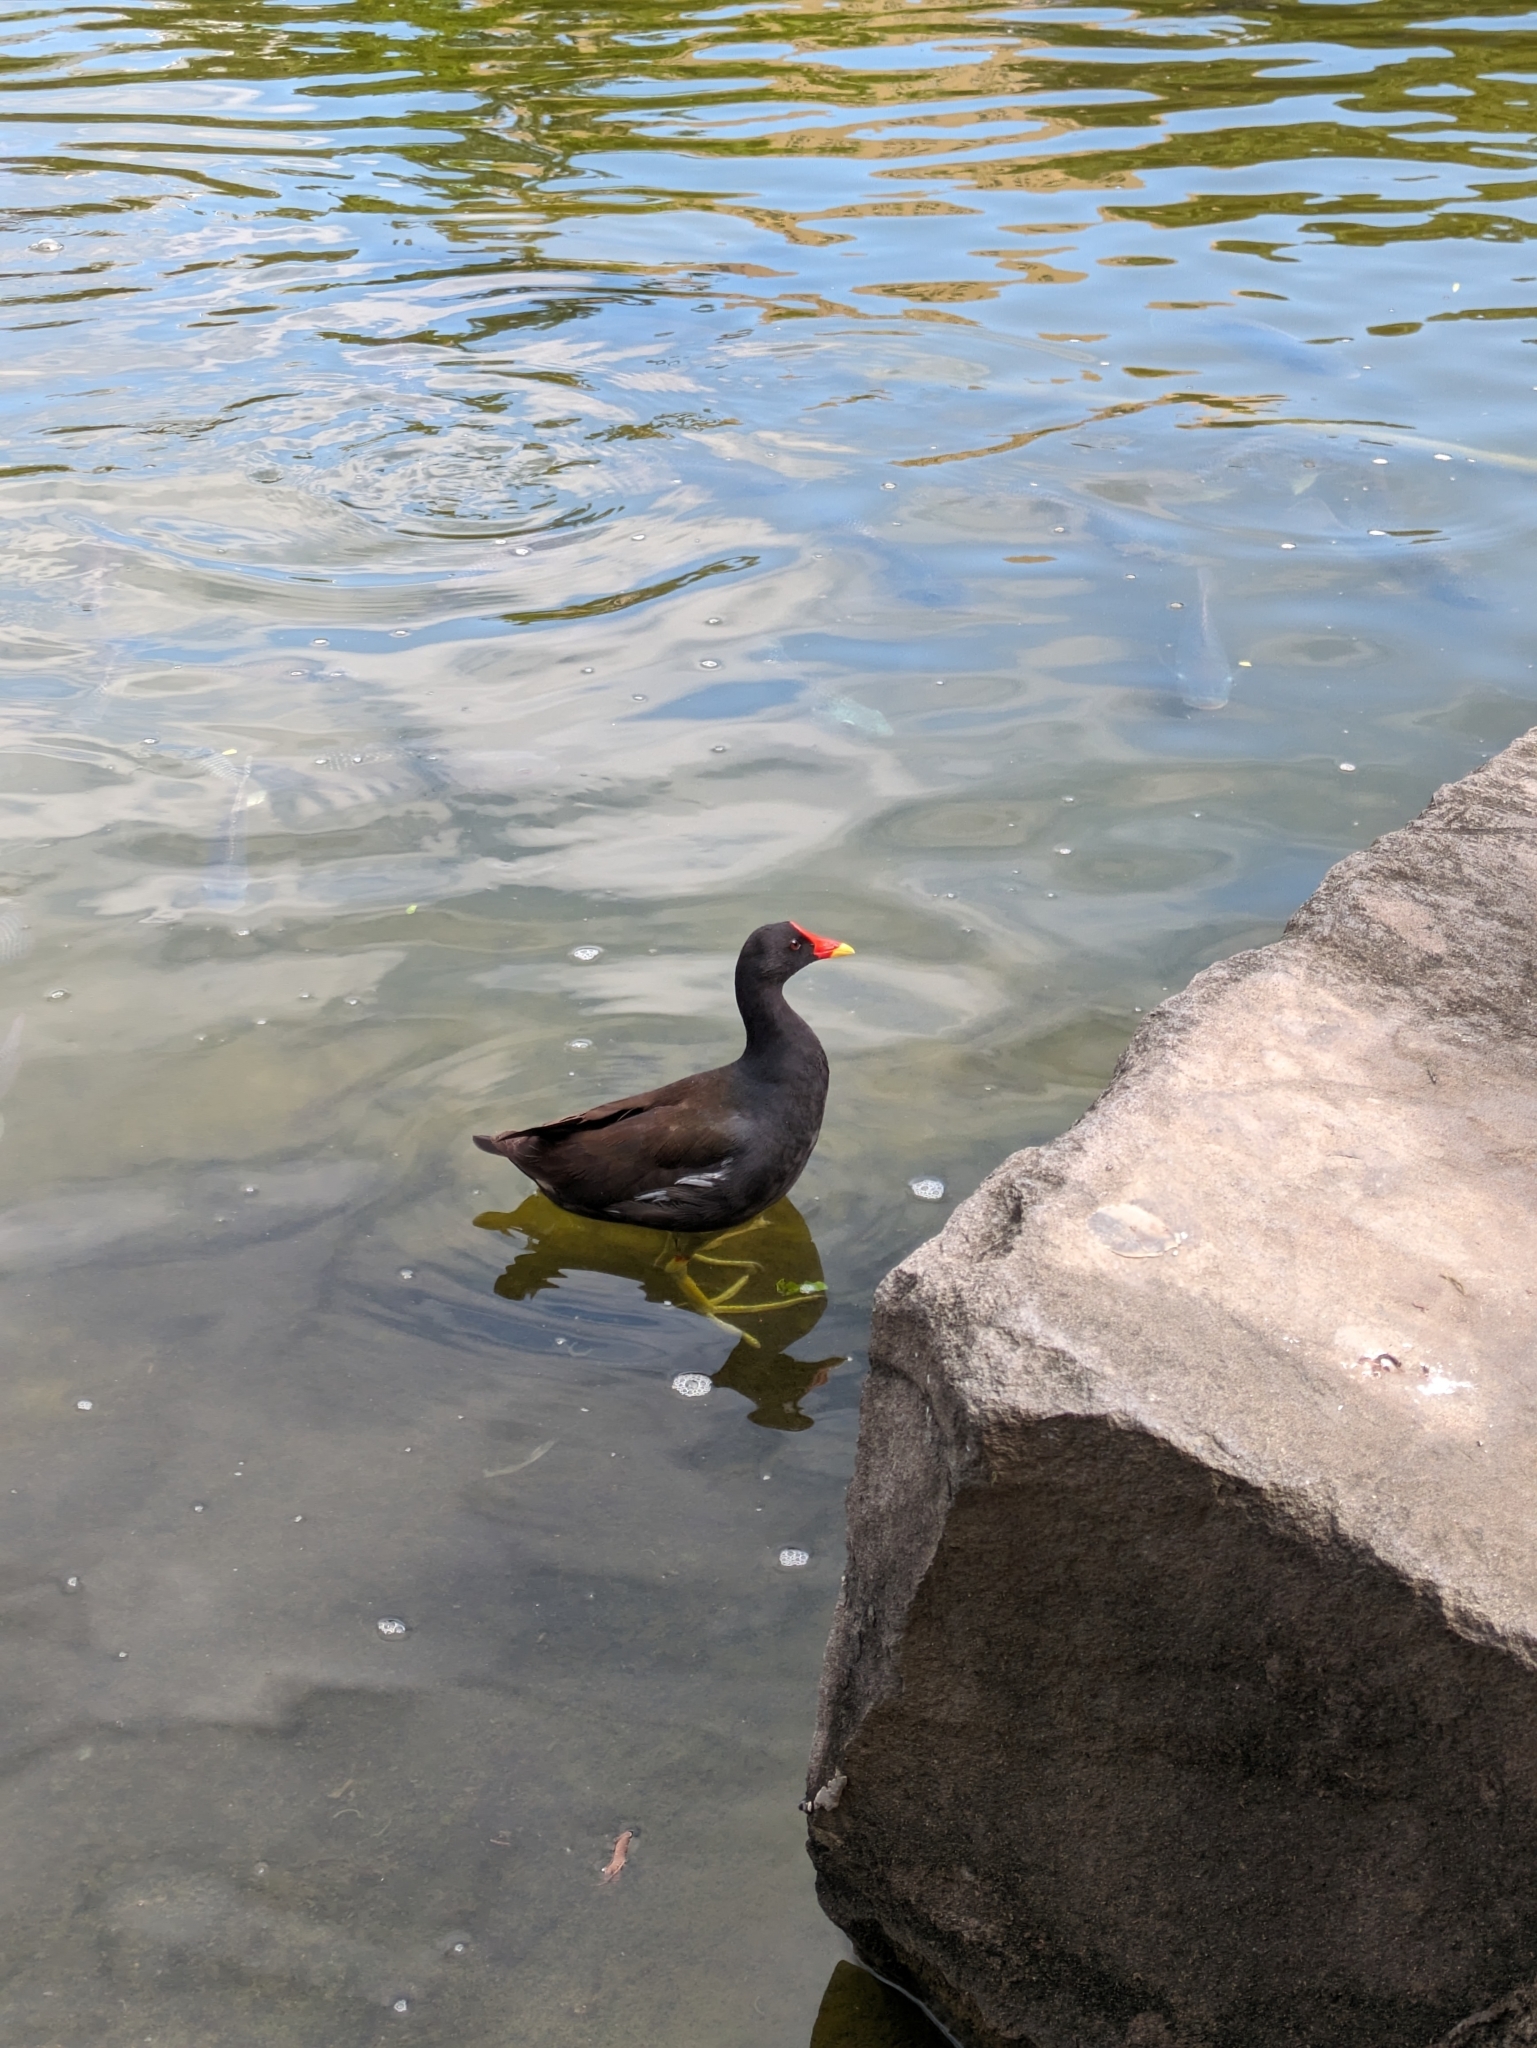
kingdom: Animalia
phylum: Chordata
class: Aves
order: Gruiformes
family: Rallidae
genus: Gallinula
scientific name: Gallinula chloropus
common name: Common moorhen
